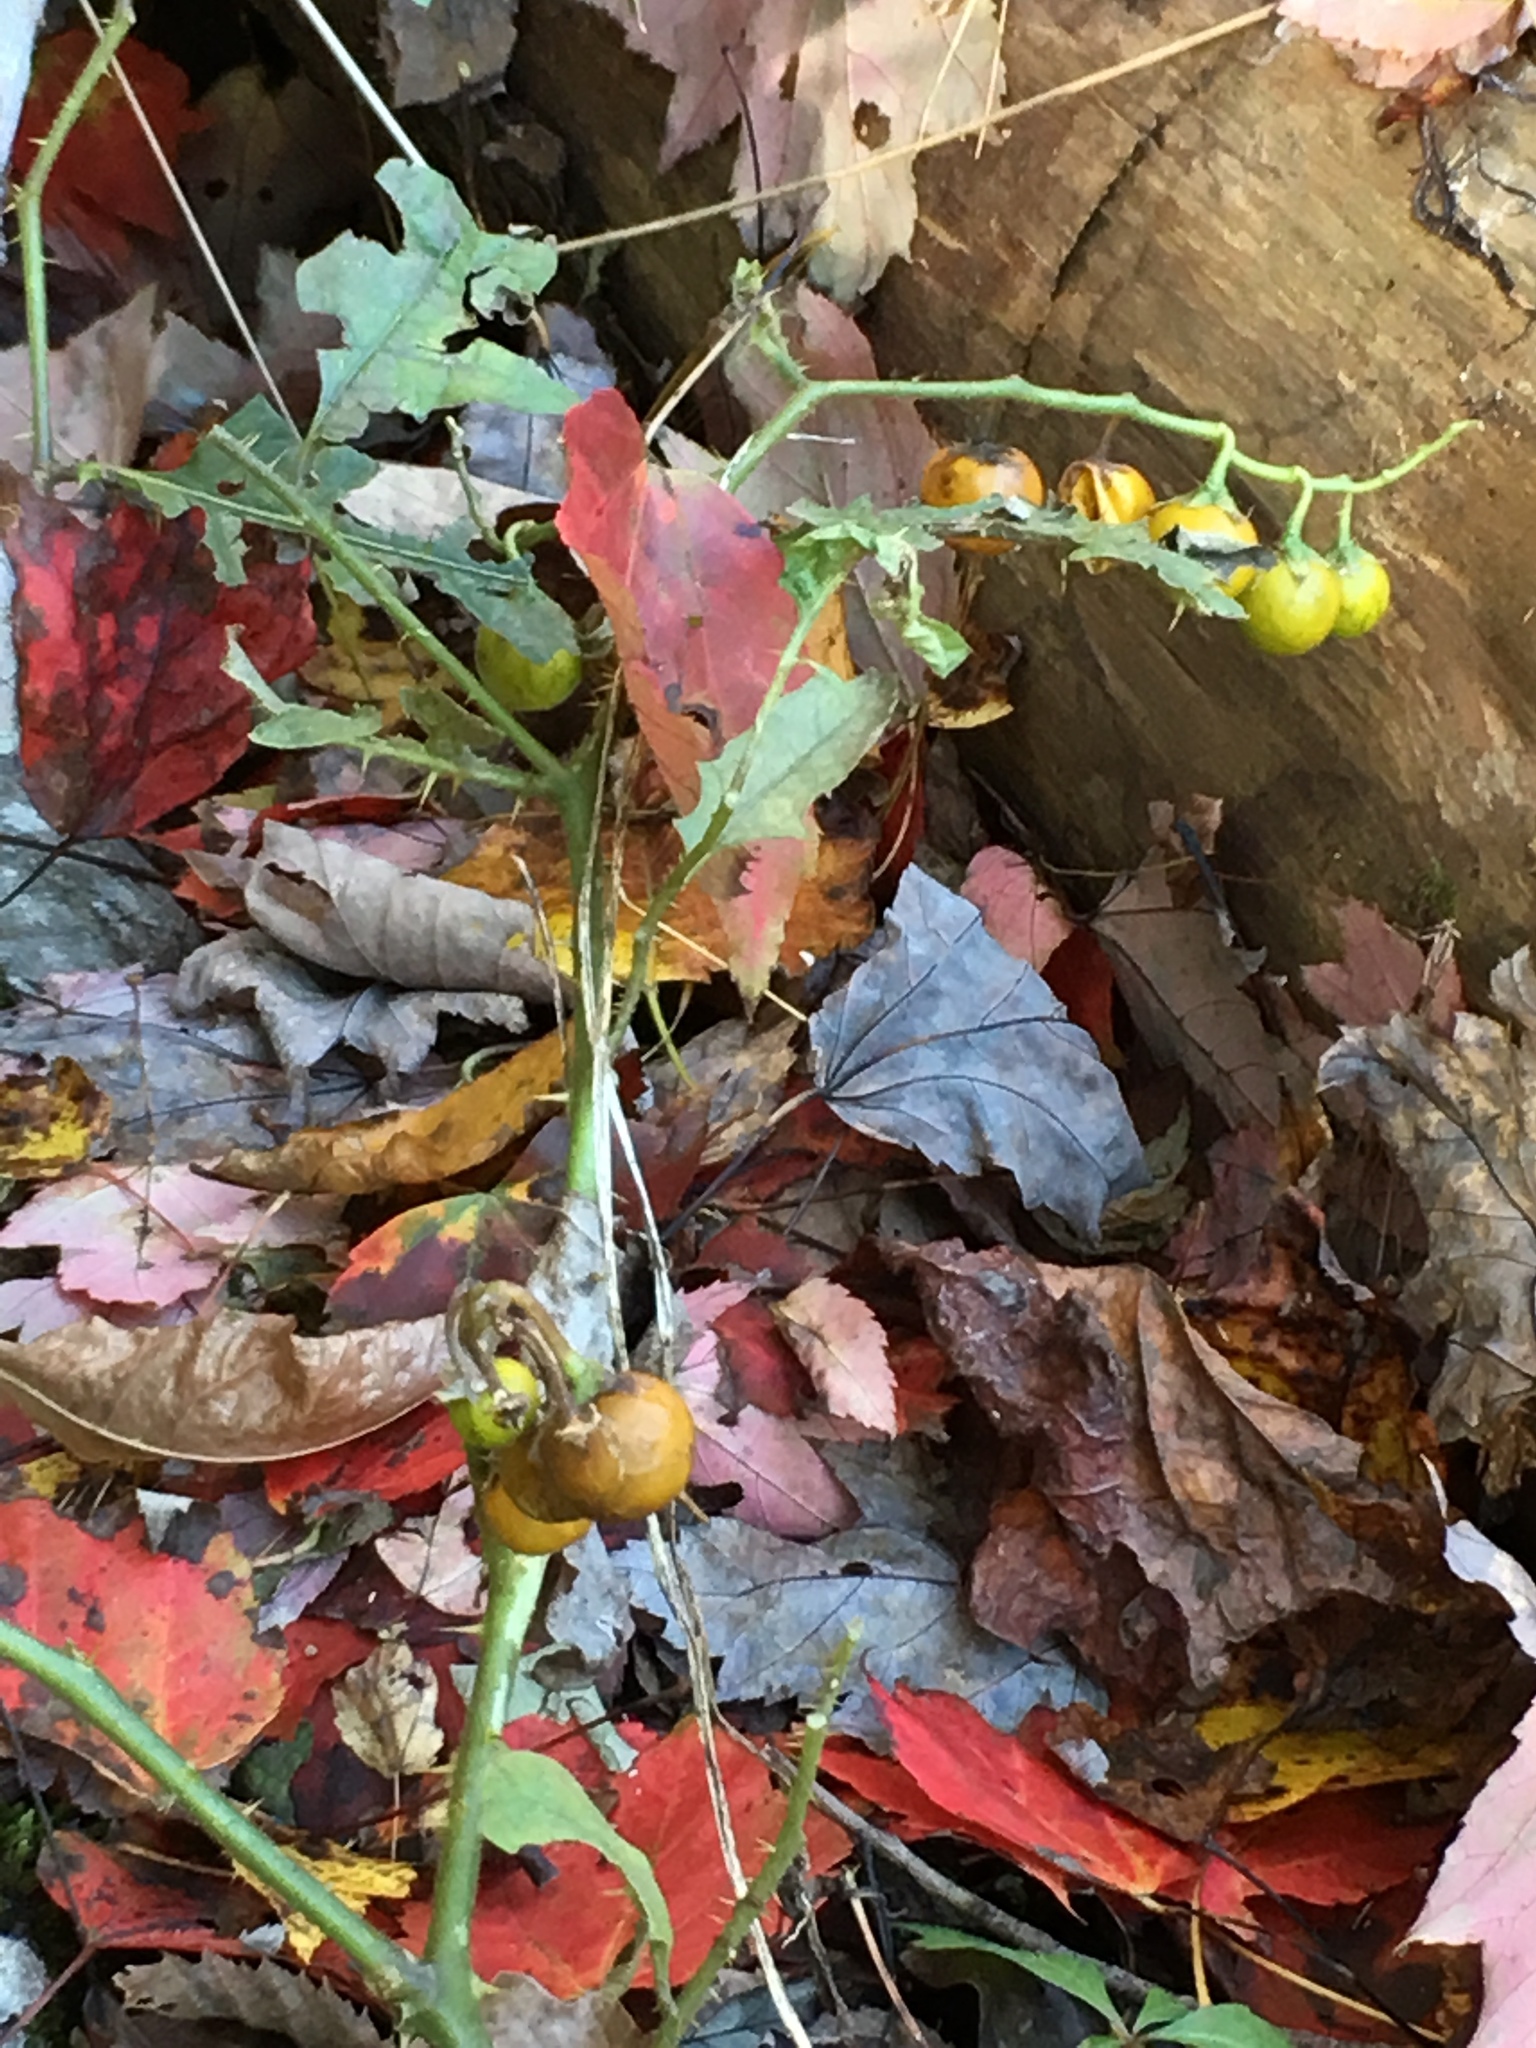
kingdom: Plantae
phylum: Tracheophyta
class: Magnoliopsida
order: Solanales
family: Solanaceae
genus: Solanum
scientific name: Solanum carolinense
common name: Horse-nettle
